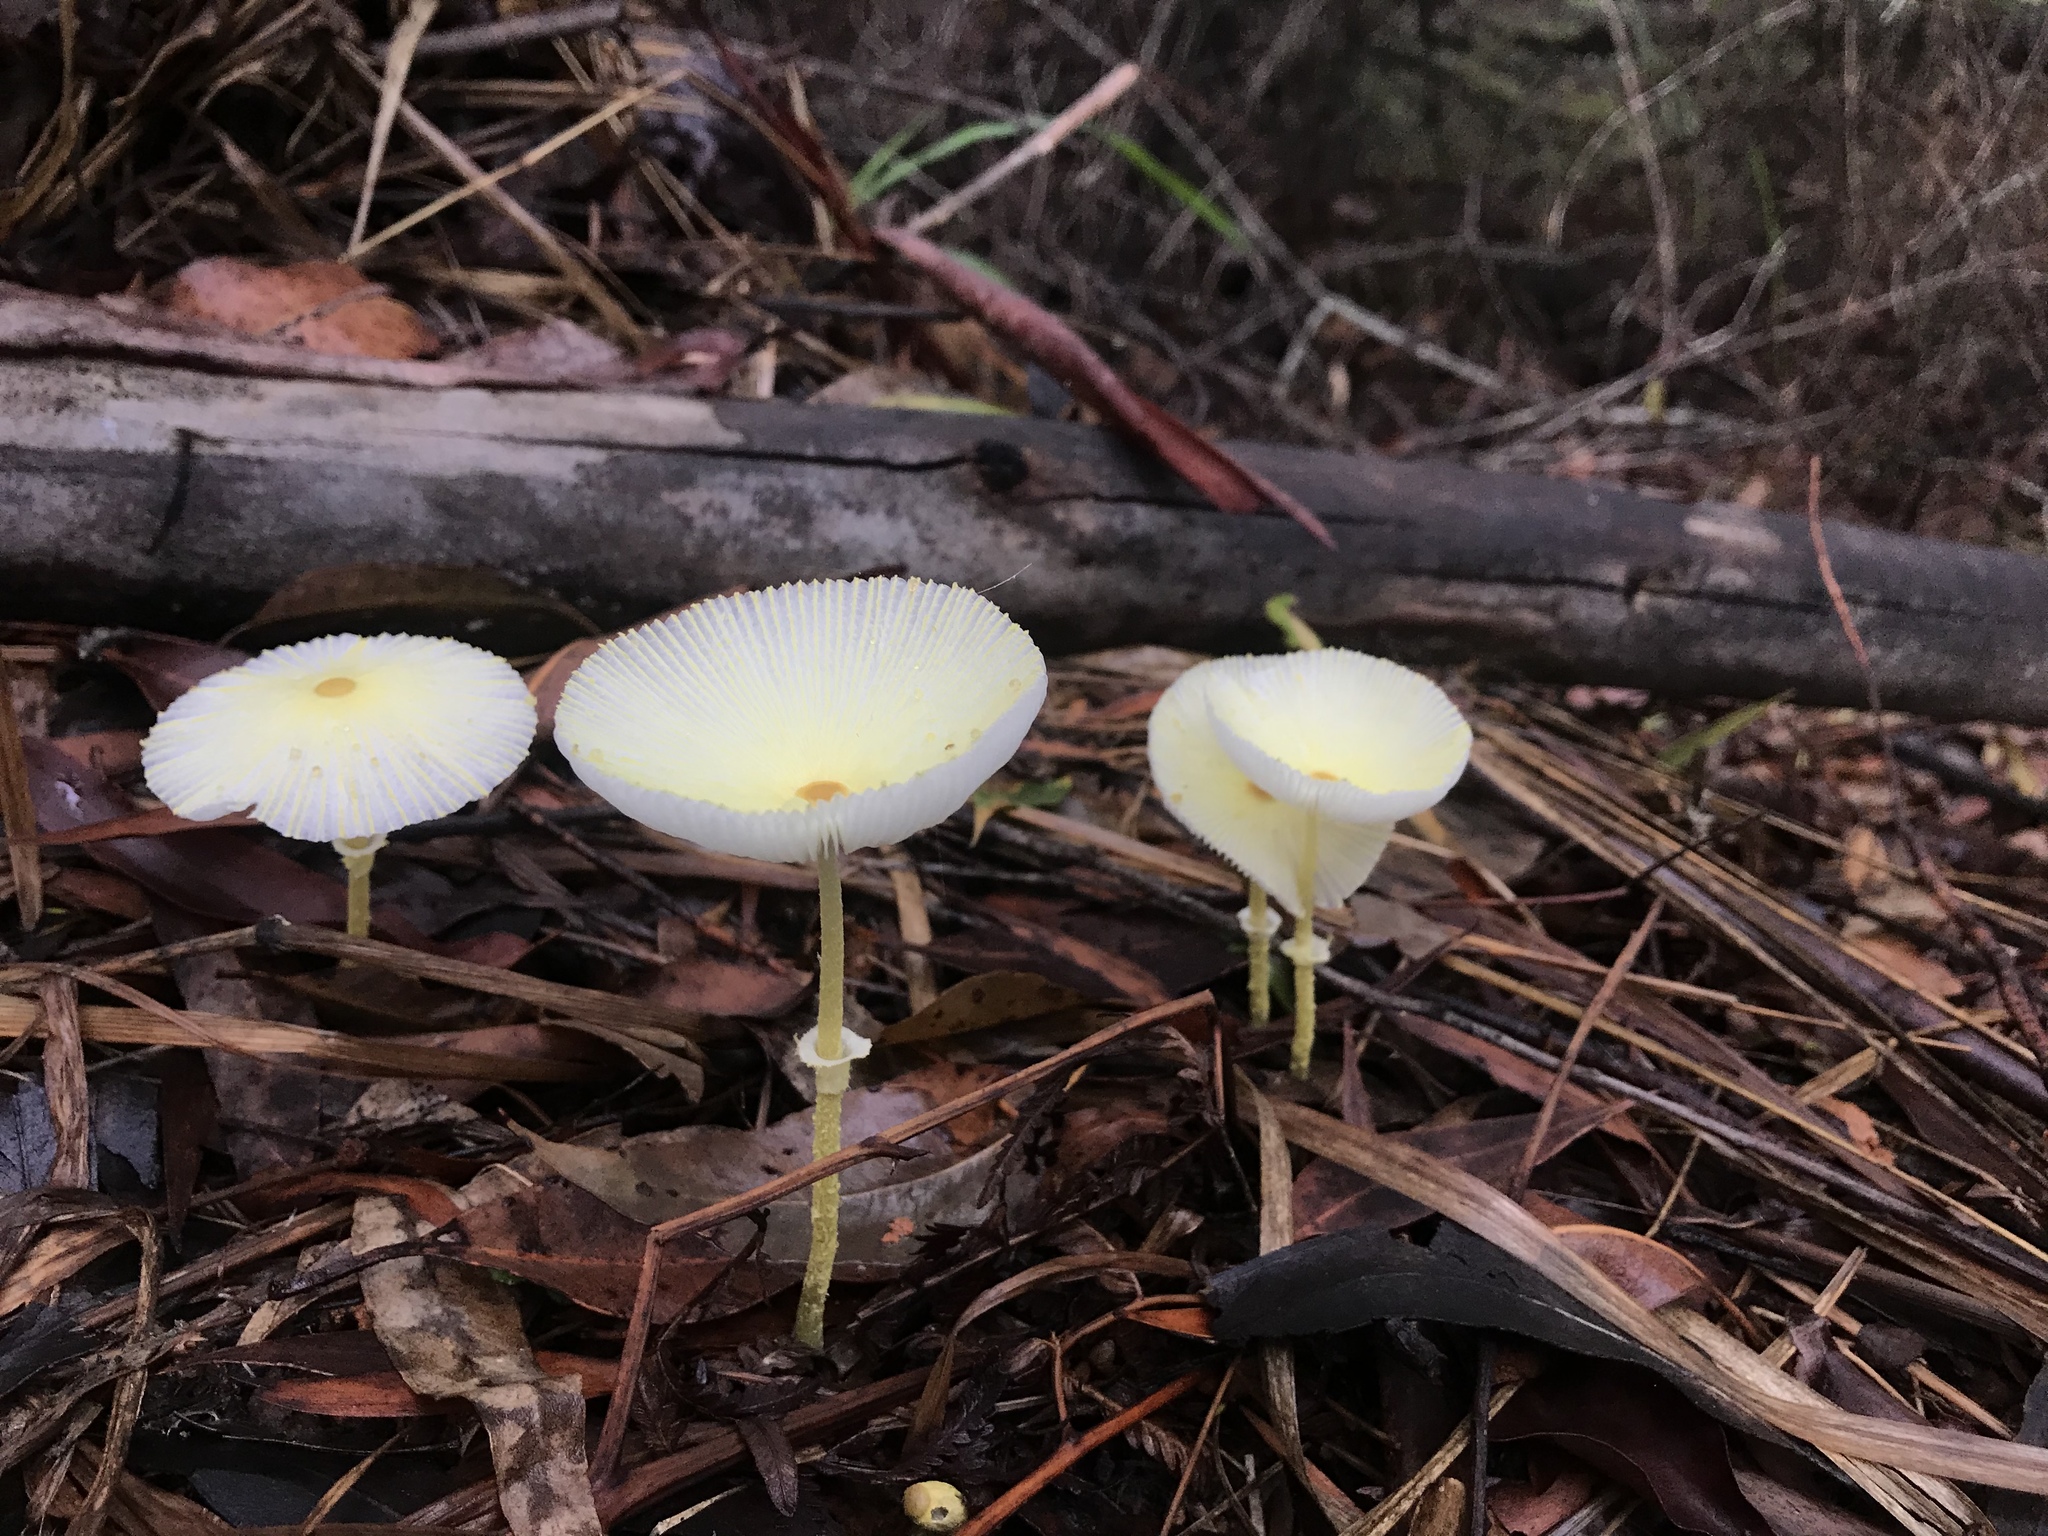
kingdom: Fungi
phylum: Basidiomycota
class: Agaricomycetes
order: Agaricales
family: Agaricaceae
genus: Leucocoprinus
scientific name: Leucocoprinus fragilissimus
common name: Fragile dapperling
